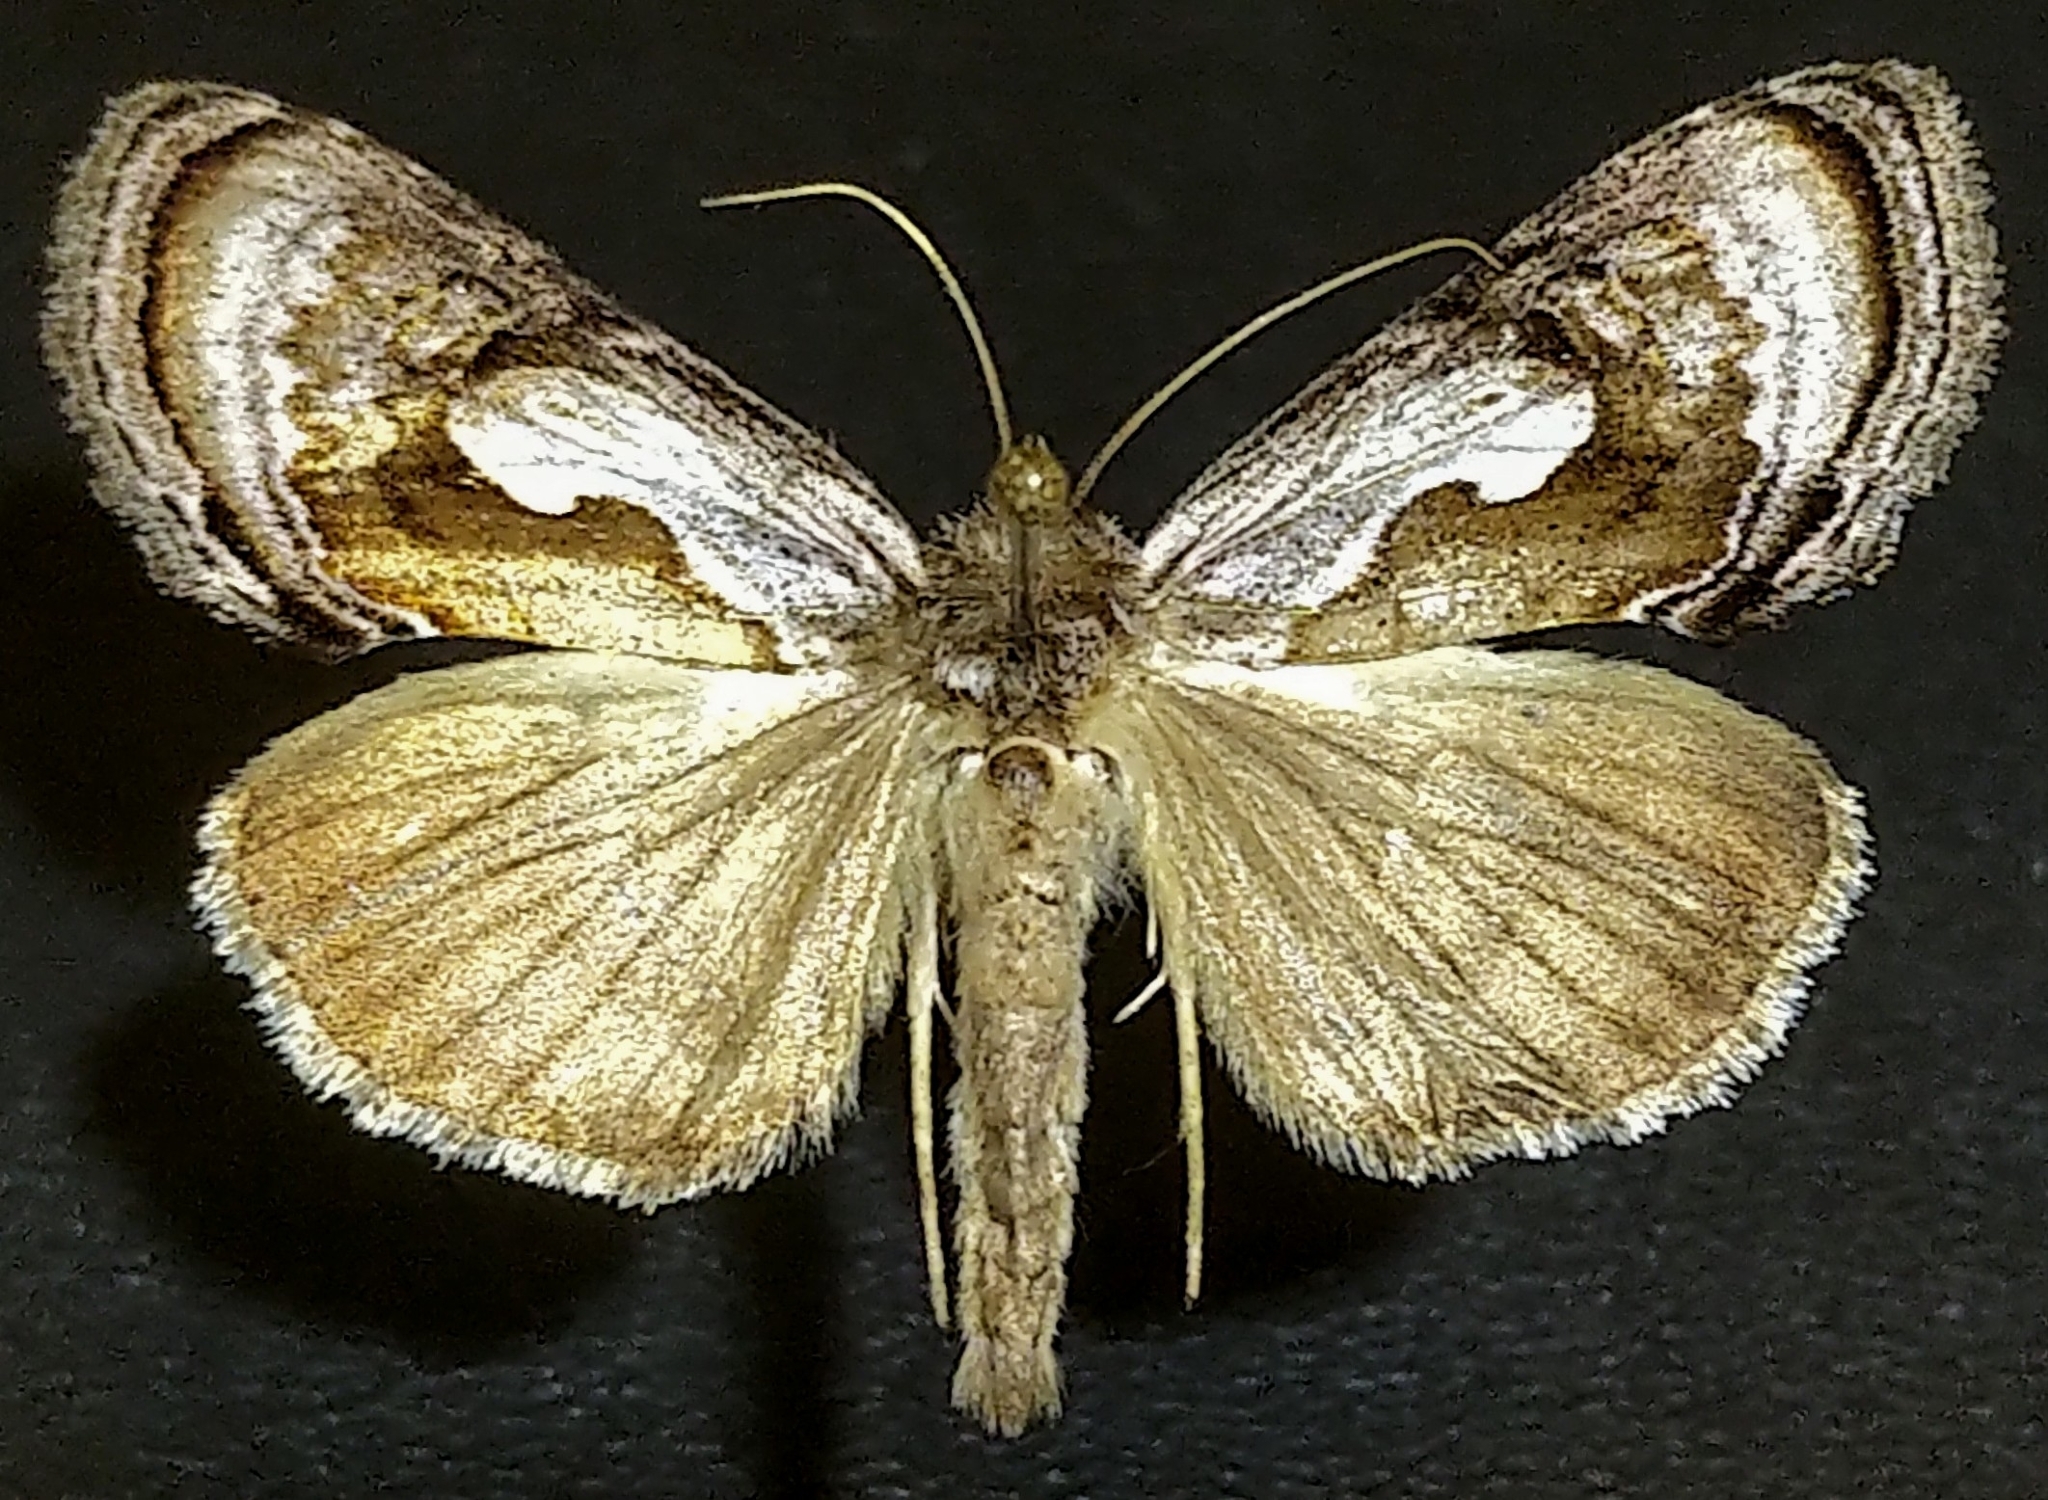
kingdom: Animalia
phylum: Arthropoda
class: Insecta
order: Lepidoptera
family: Noctuidae
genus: Chrysanympha
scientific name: Chrysanympha formosa
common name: Formosa looper moth
